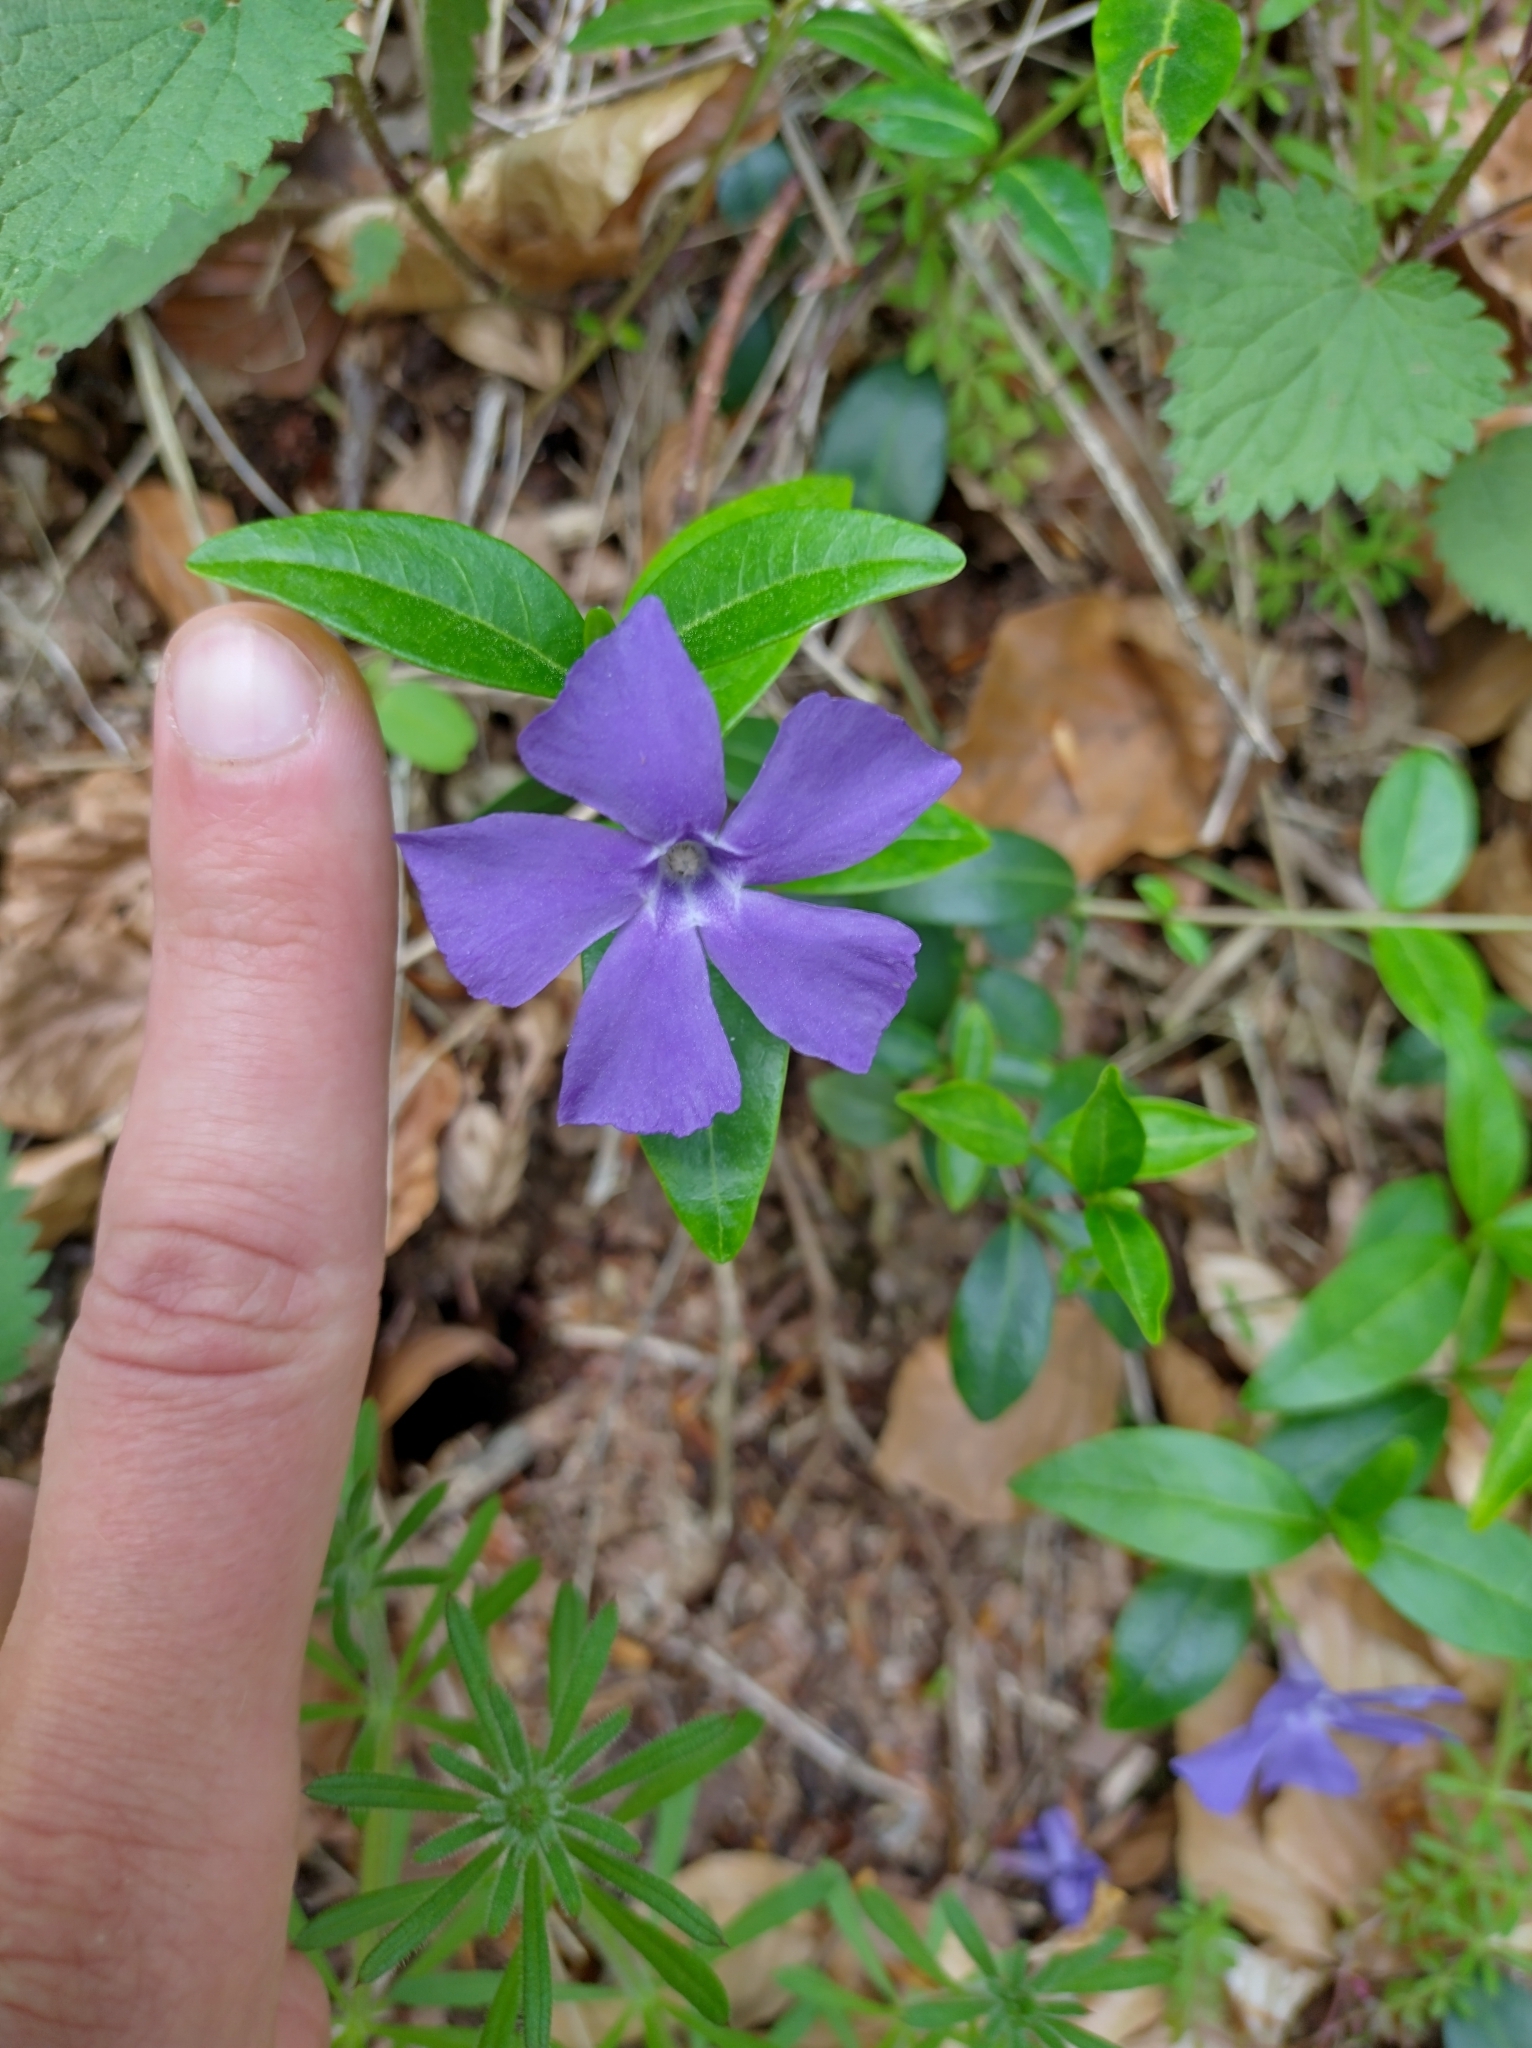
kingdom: Plantae
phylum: Tracheophyta
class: Magnoliopsida
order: Gentianales
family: Apocynaceae
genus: Vinca
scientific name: Vinca minor
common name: Lesser periwinkle
